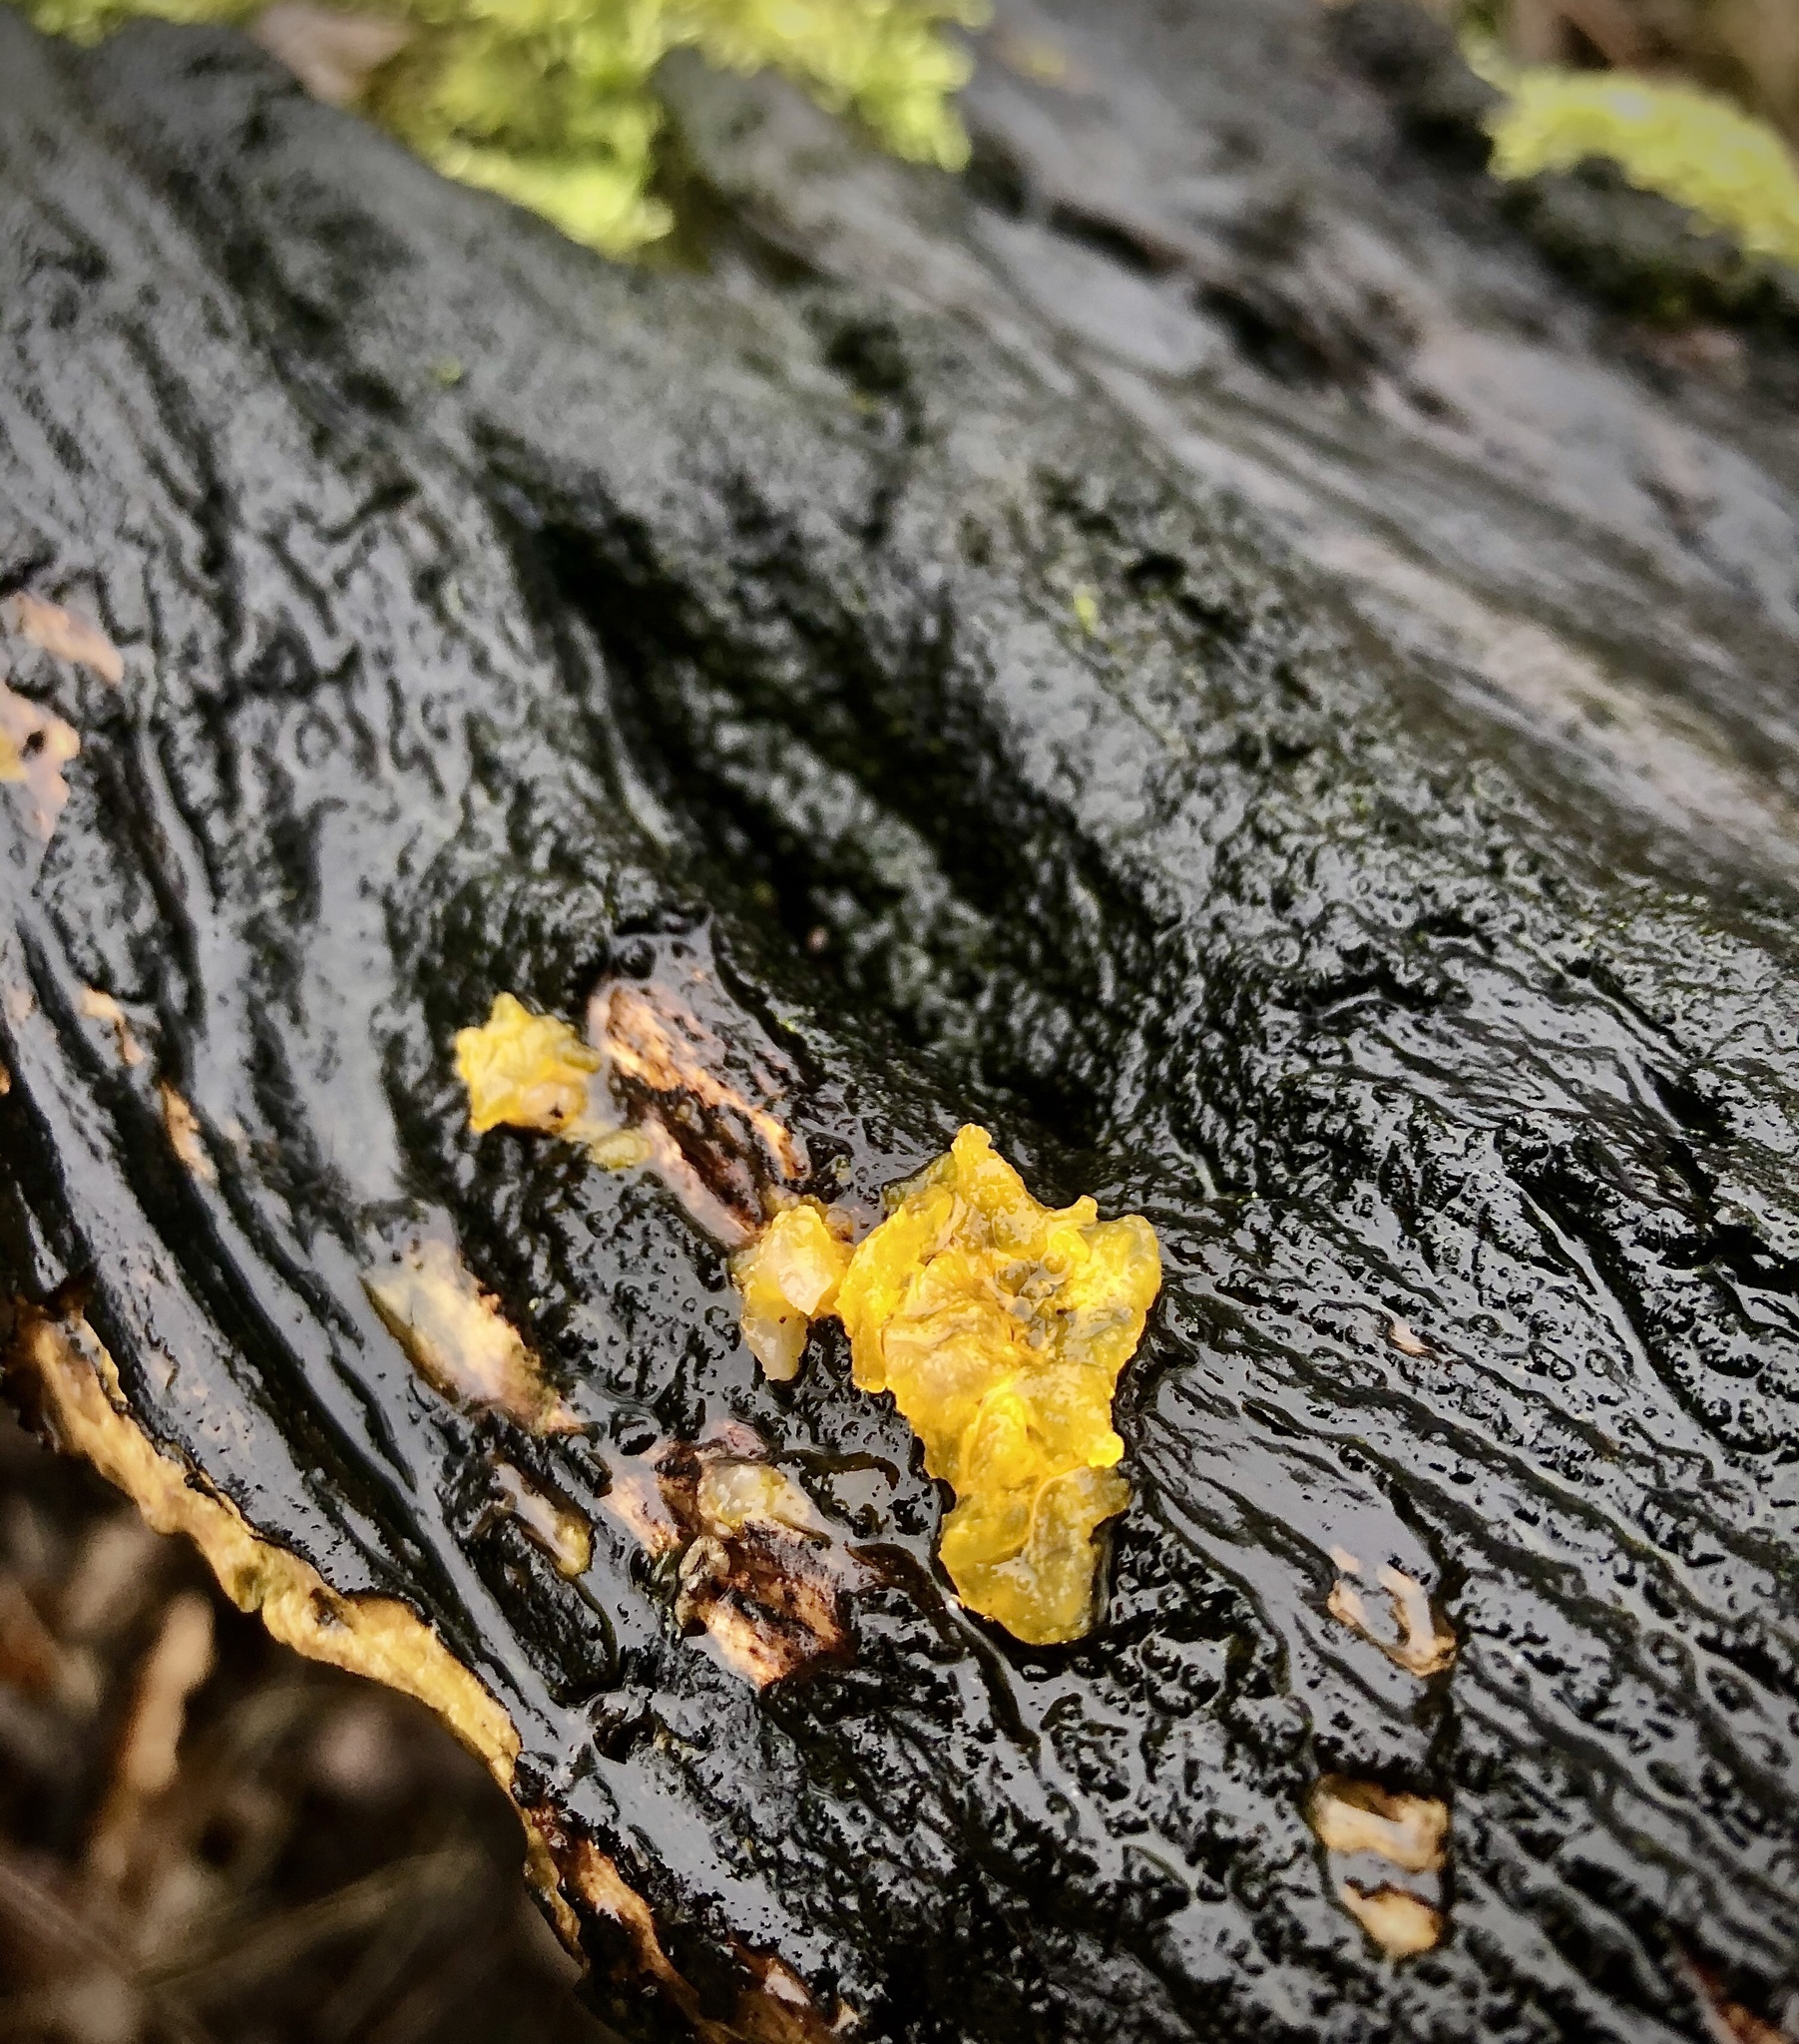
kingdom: Fungi
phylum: Basidiomycota
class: Tremellomycetes
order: Tremellales
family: Tremellaceae
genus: Tremella
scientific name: Tremella mesenterica
